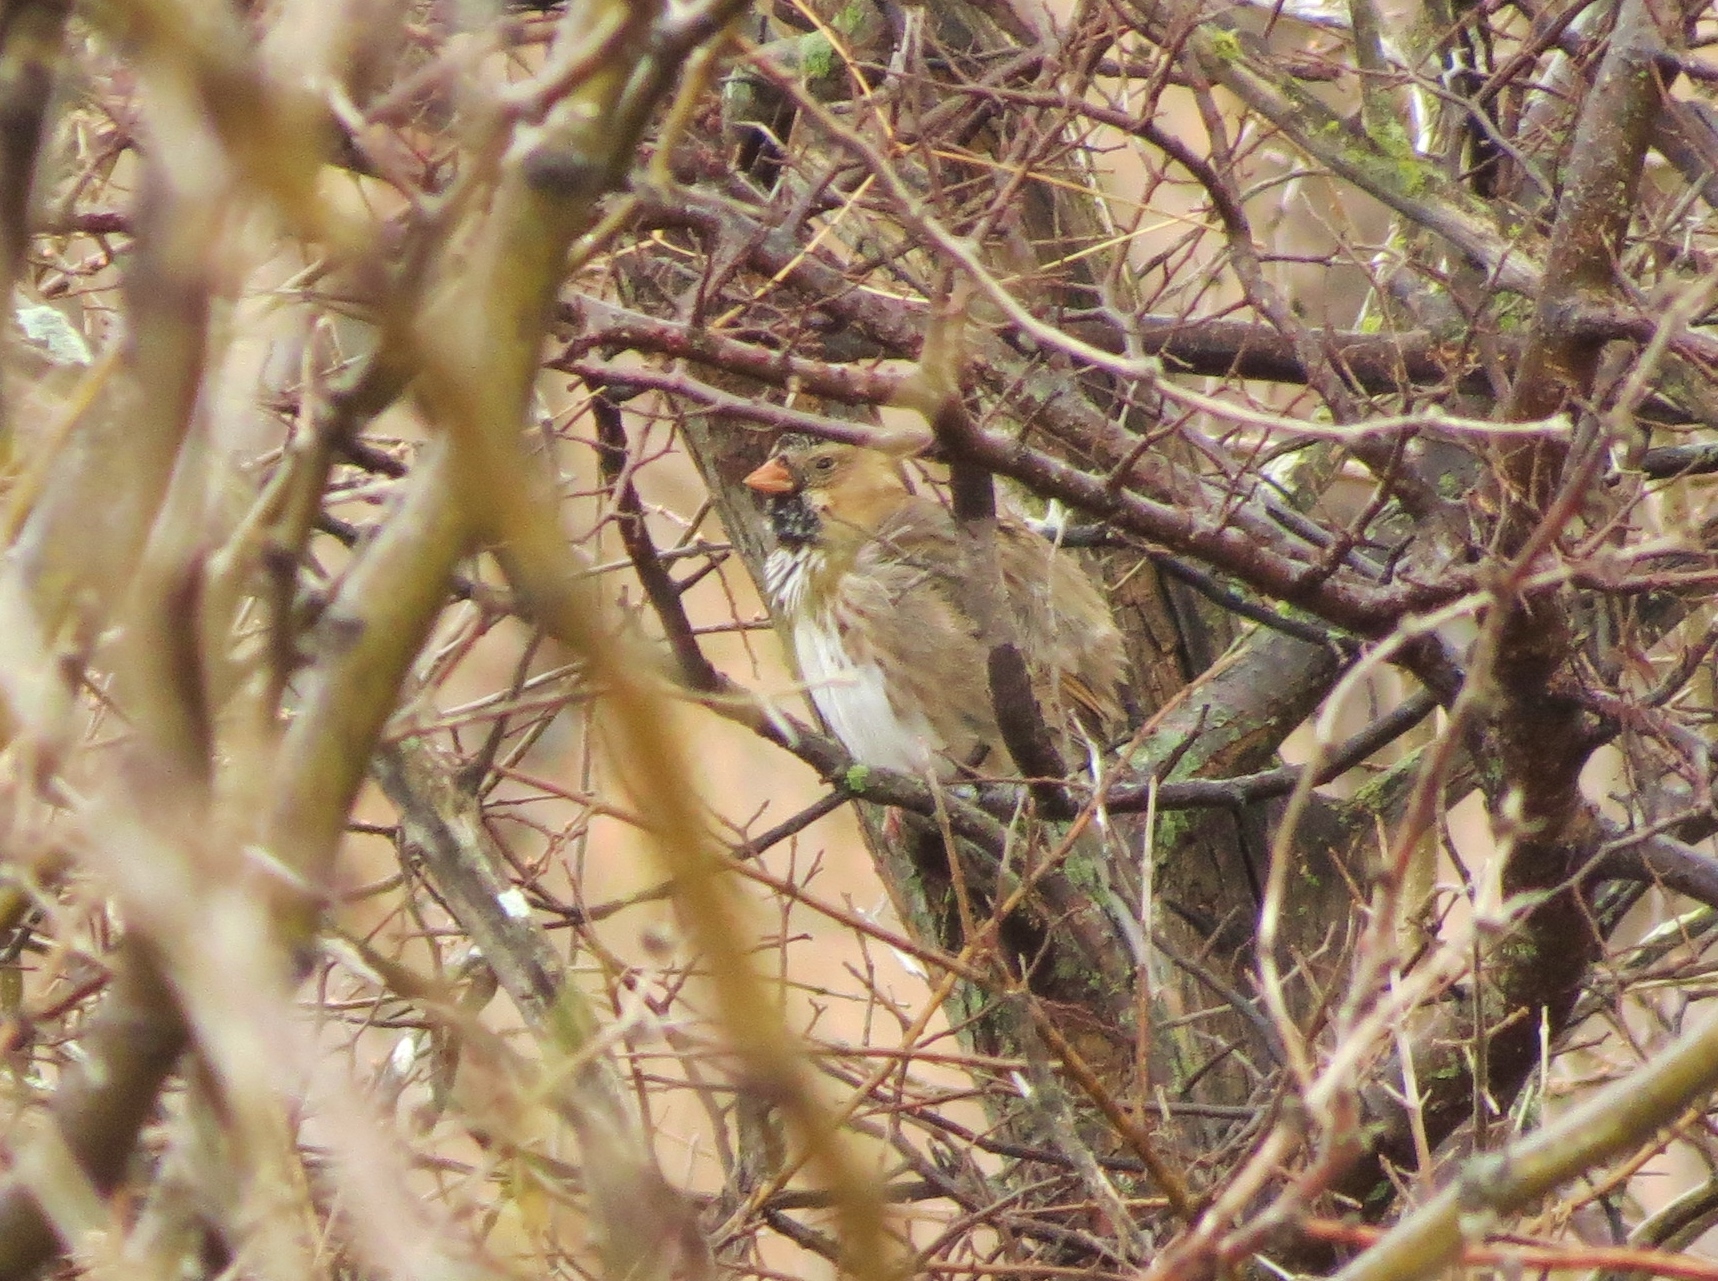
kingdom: Animalia
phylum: Chordata
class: Aves
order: Passeriformes
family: Passerellidae
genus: Zonotrichia
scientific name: Zonotrichia querula
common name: Harris's sparrow
